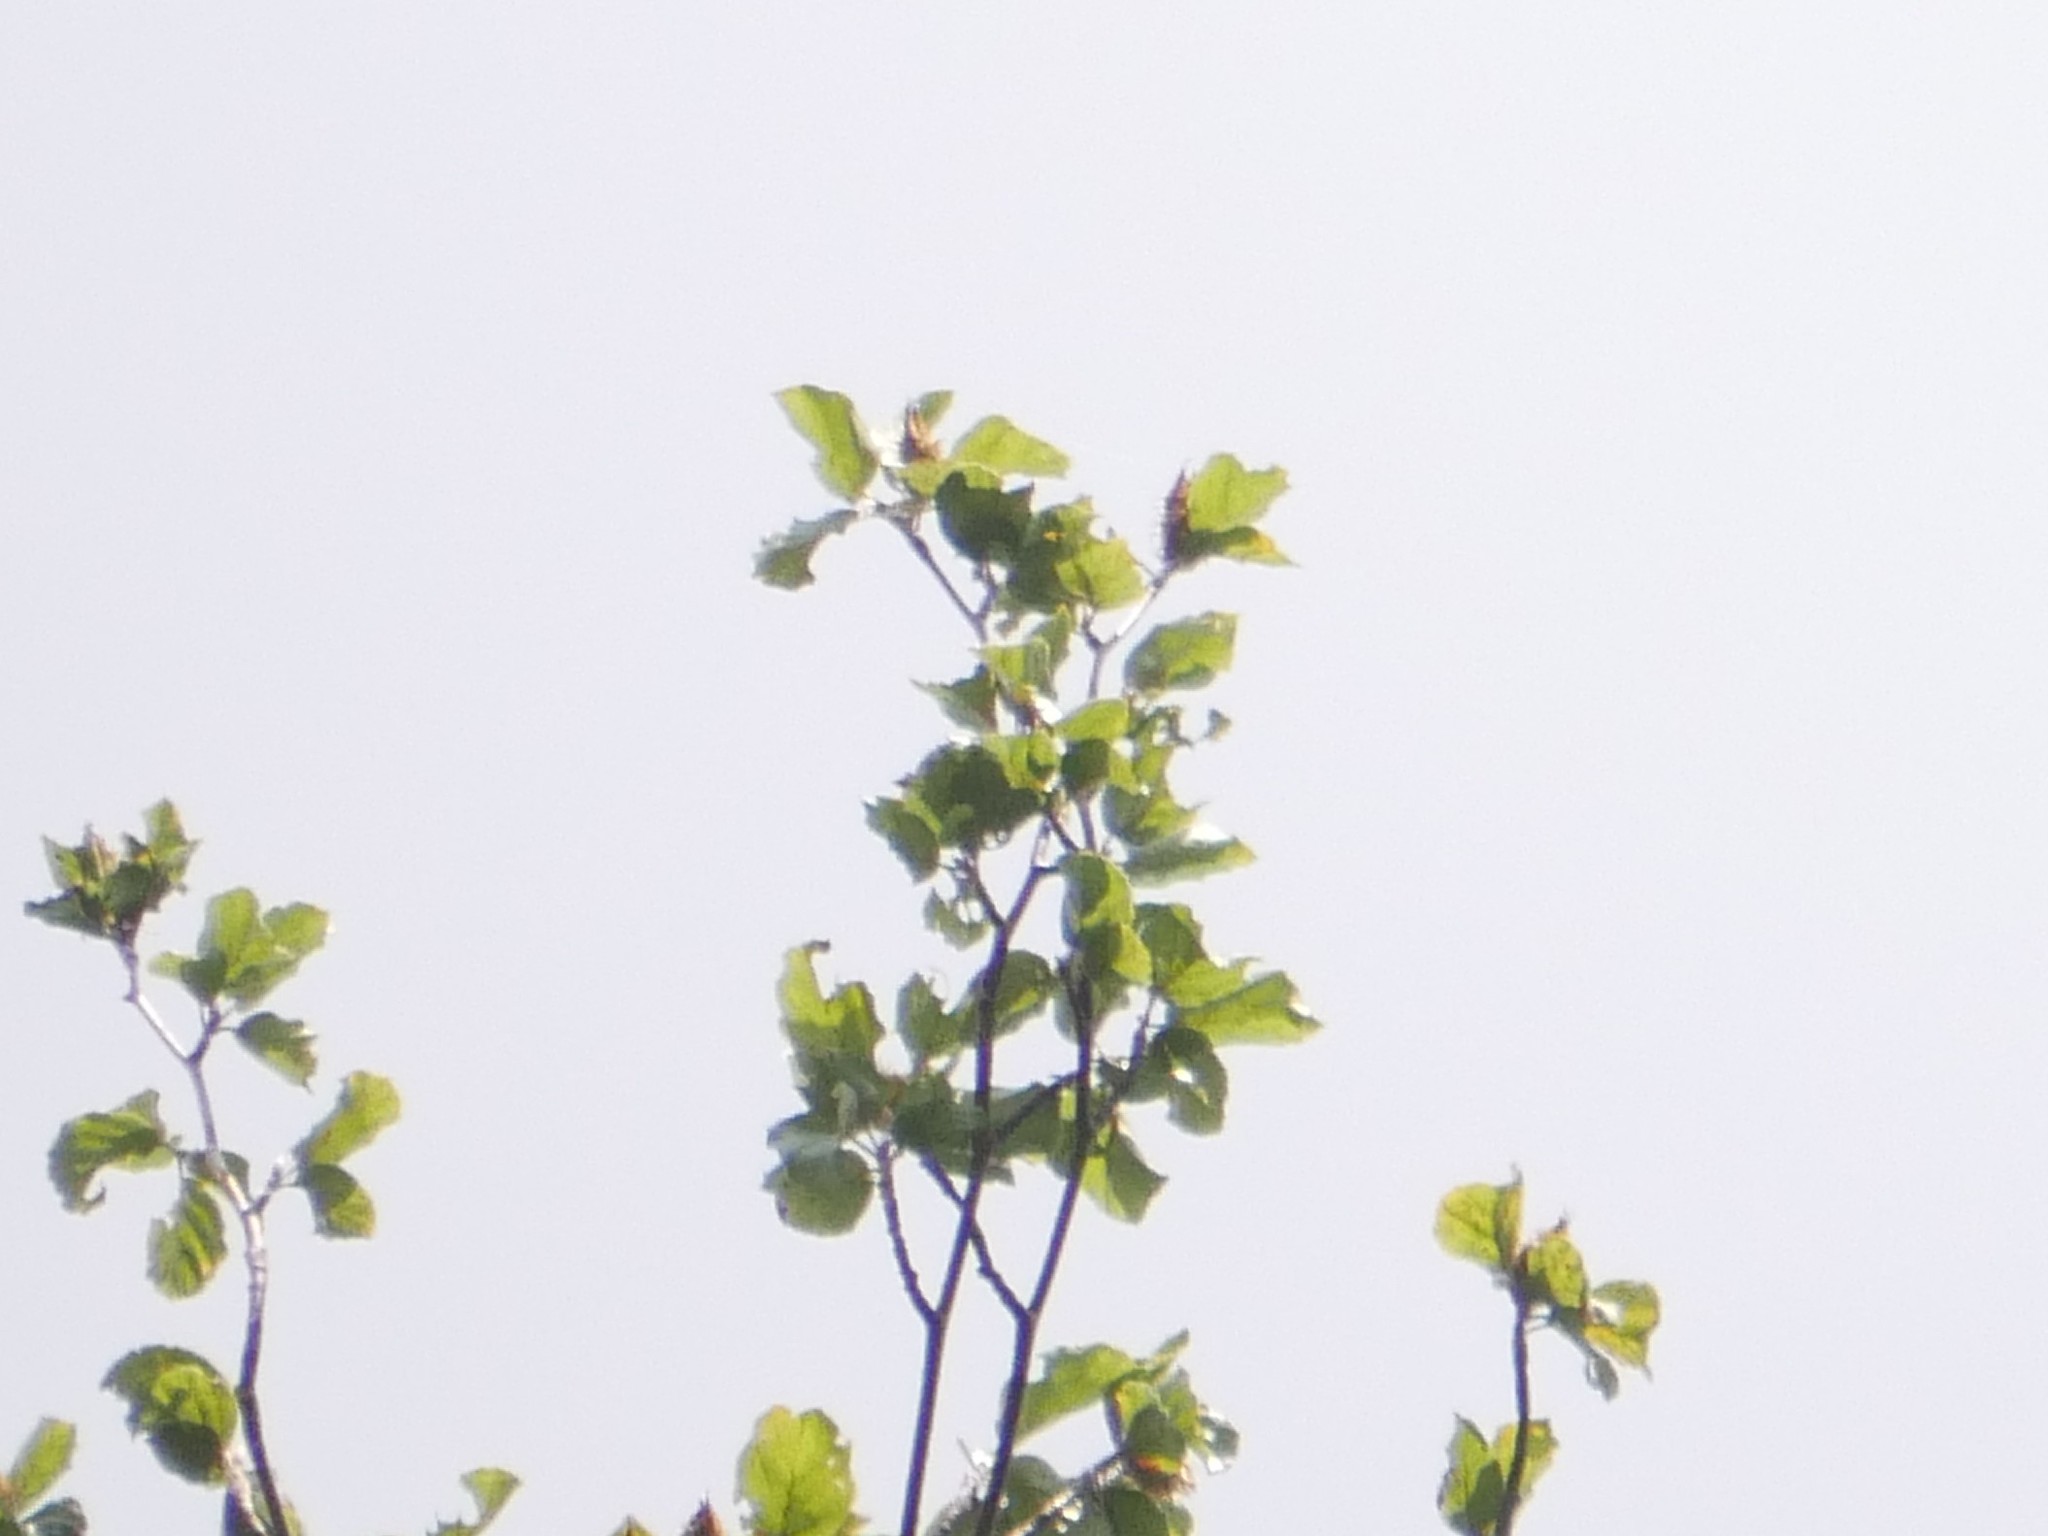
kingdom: Plantae
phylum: Tracheophyta
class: Magnoliopsida
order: Fagales
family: Fagaceae
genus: Fagus
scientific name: Fagus sylvatica
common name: Beech
